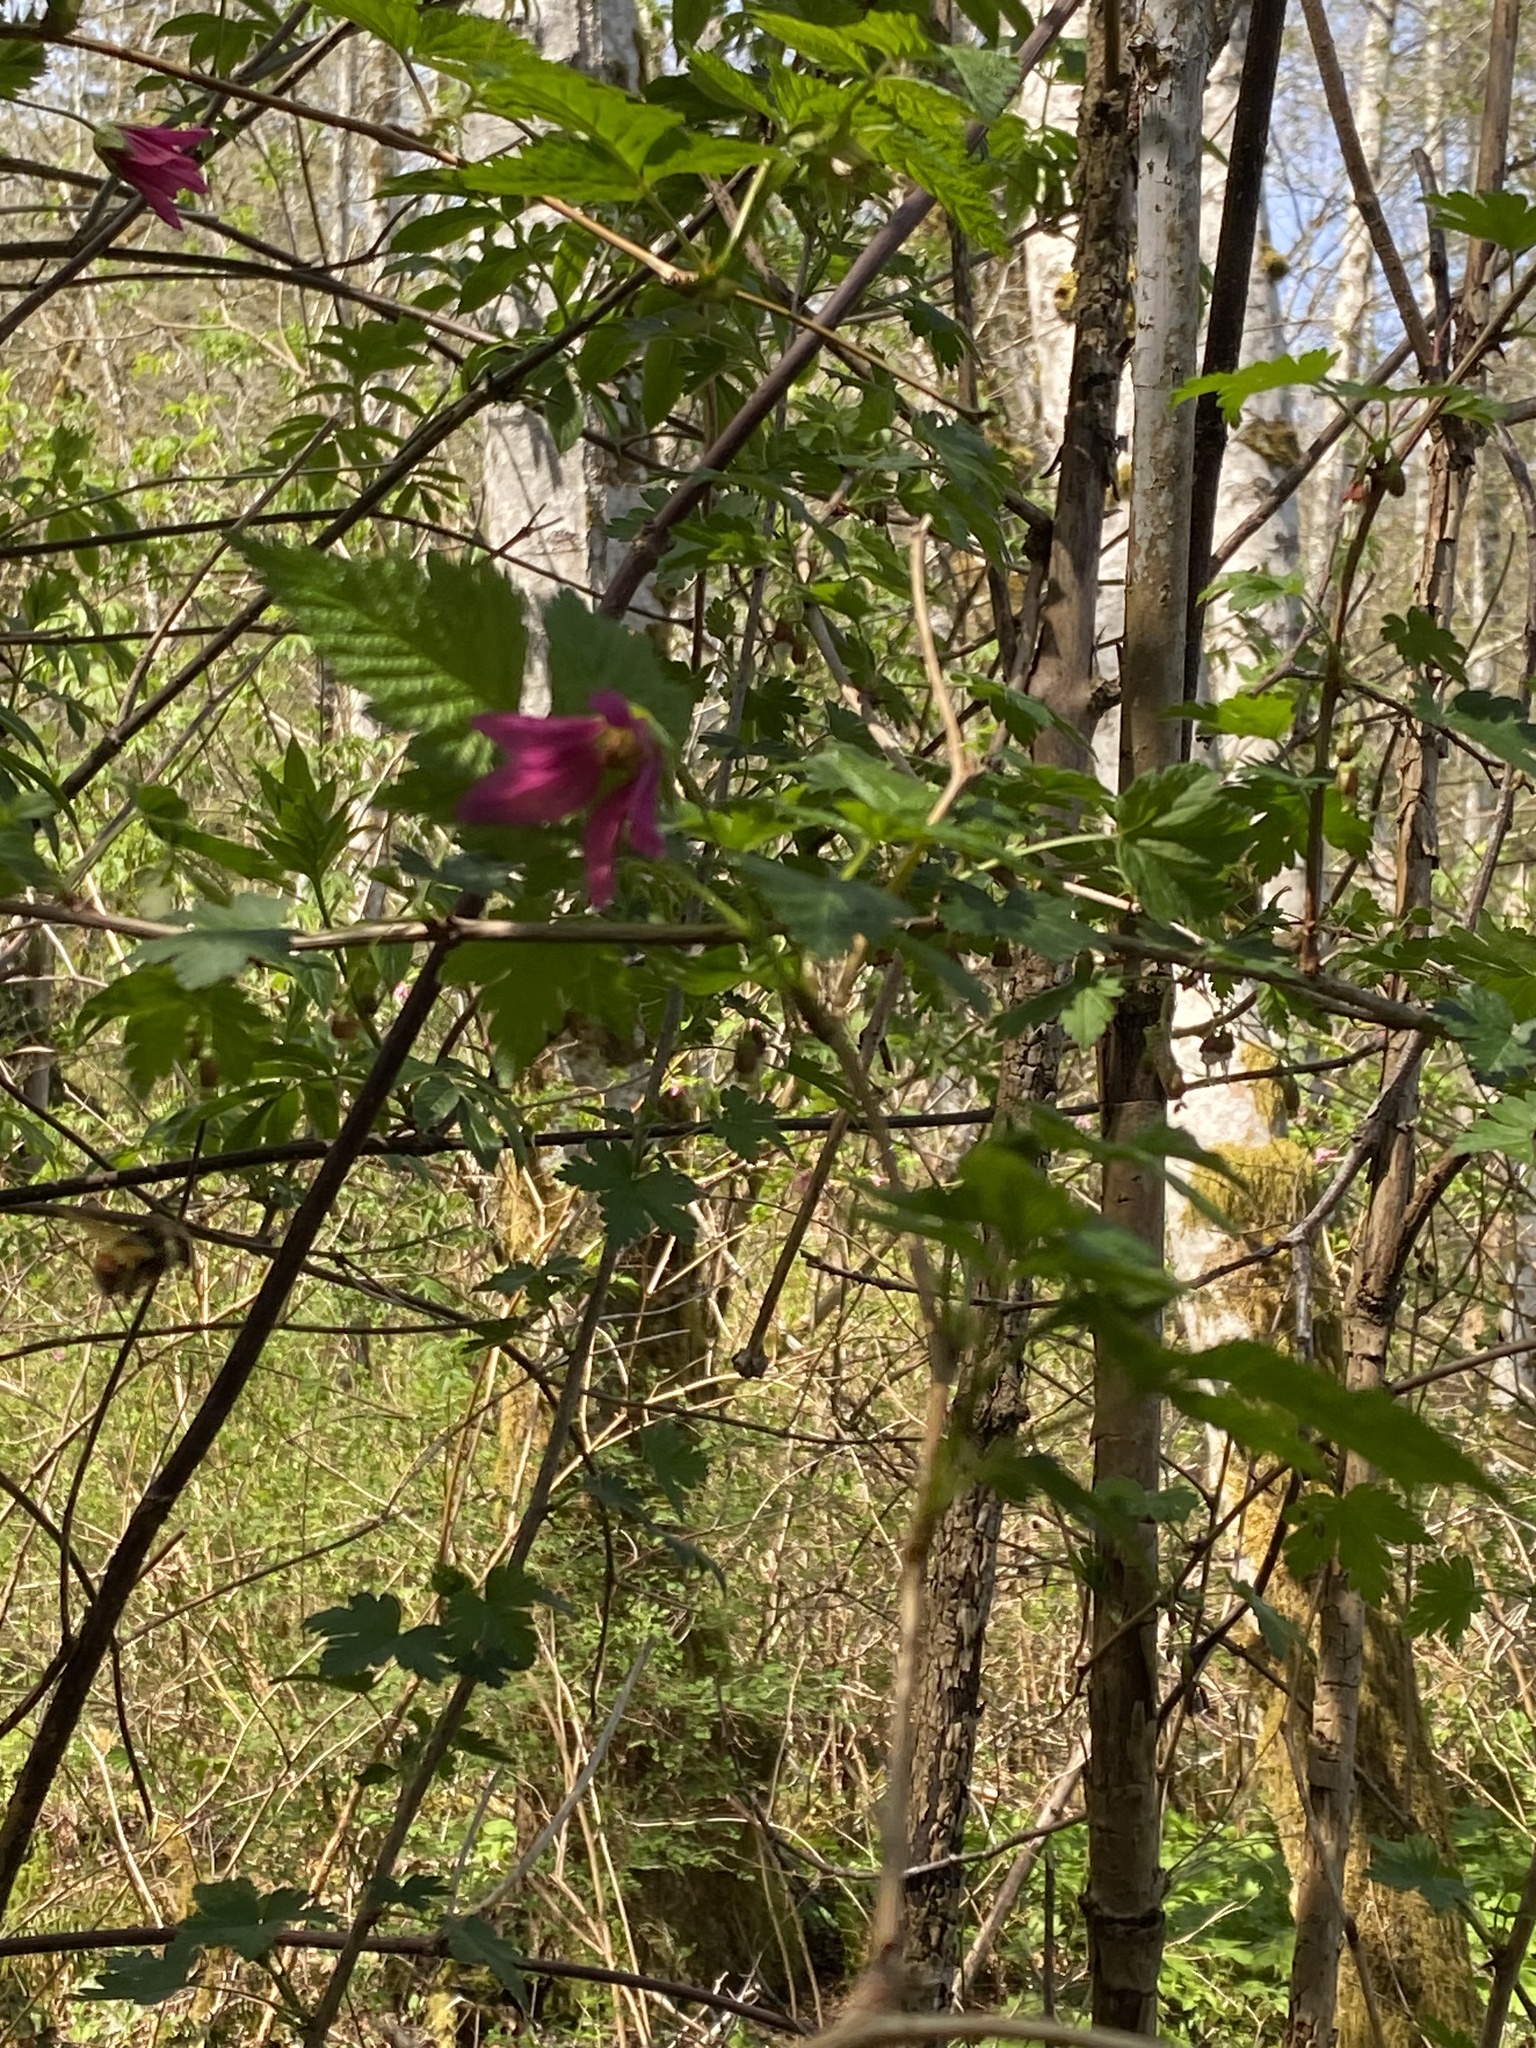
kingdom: Plantae
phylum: Tracheophyta
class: Magnoliopsida
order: Rosales
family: Rosaceae
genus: Rubus
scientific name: Rubus spectabilis
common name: Salmonberry
